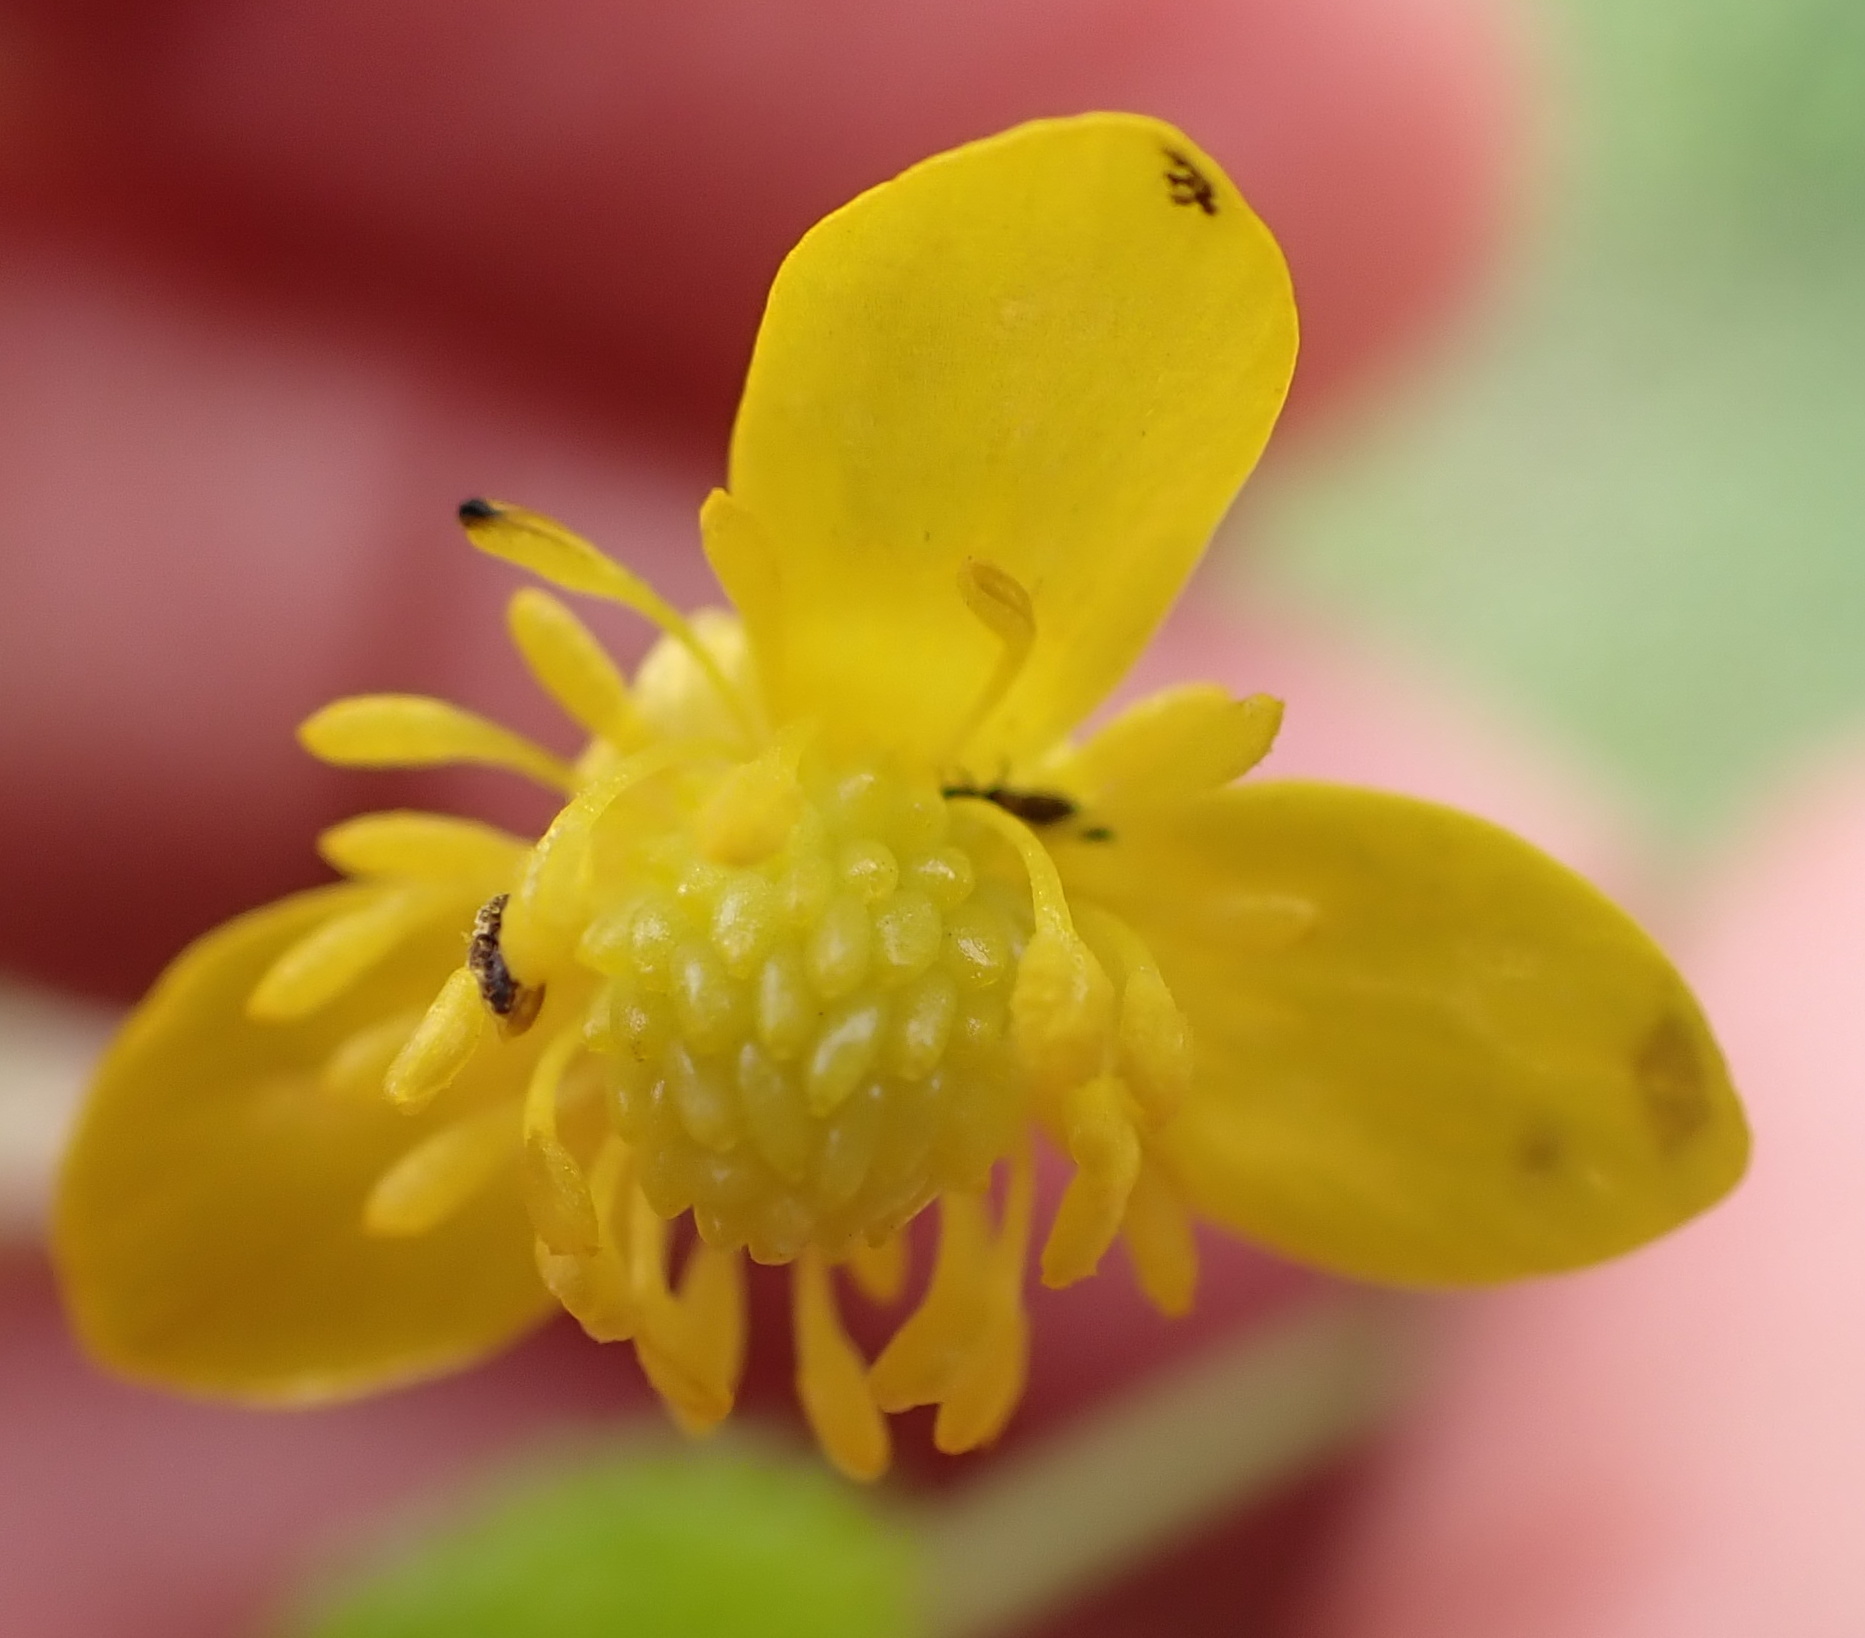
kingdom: Plantae
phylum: Tracheophyta
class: Magnoliopsida
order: Ranunculales
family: Ranunculaceae
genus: Ranunculus
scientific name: Ranunculus multifidus
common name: Wild buttercup
